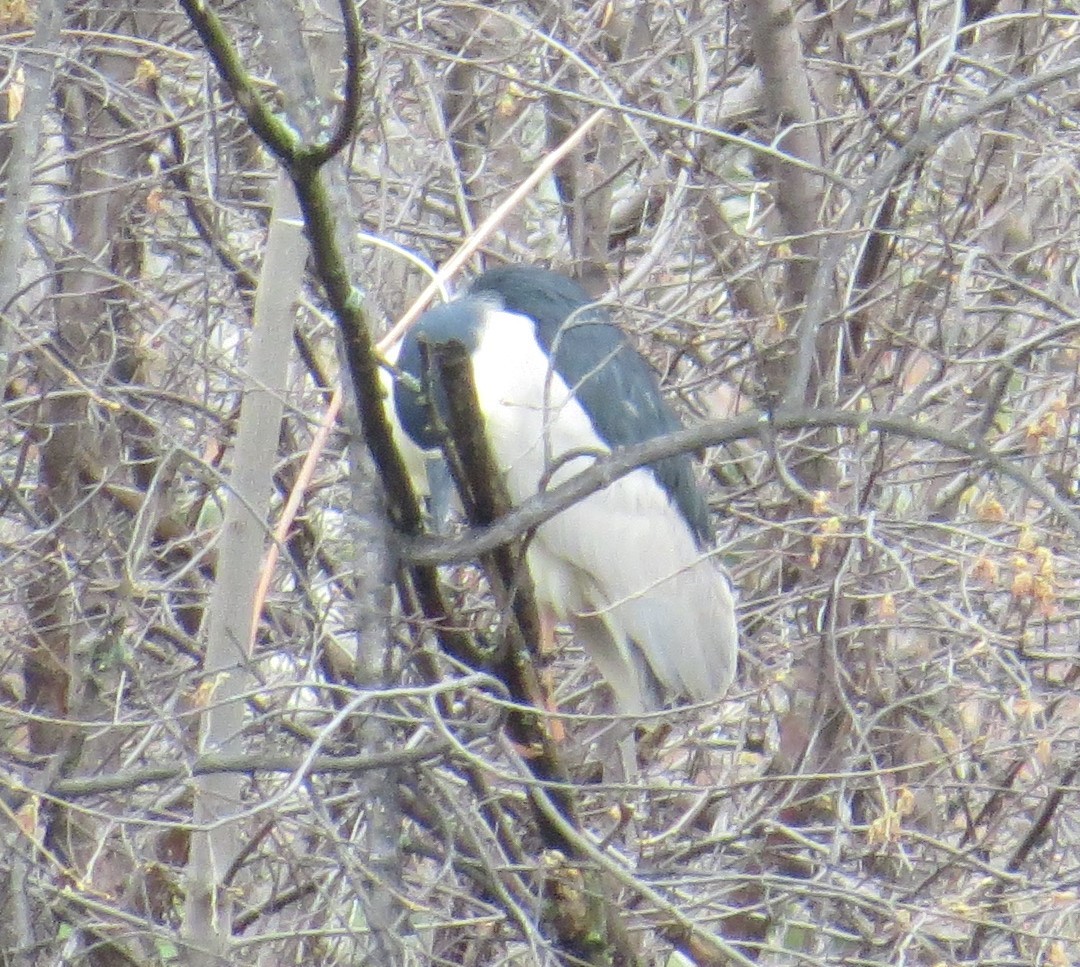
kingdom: Animalia
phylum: Chordata
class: Aves
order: Pelecaniformes
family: Ardeidae
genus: Nycticorax
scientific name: Nycticorax nycticorax
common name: Black-crowned night heron
